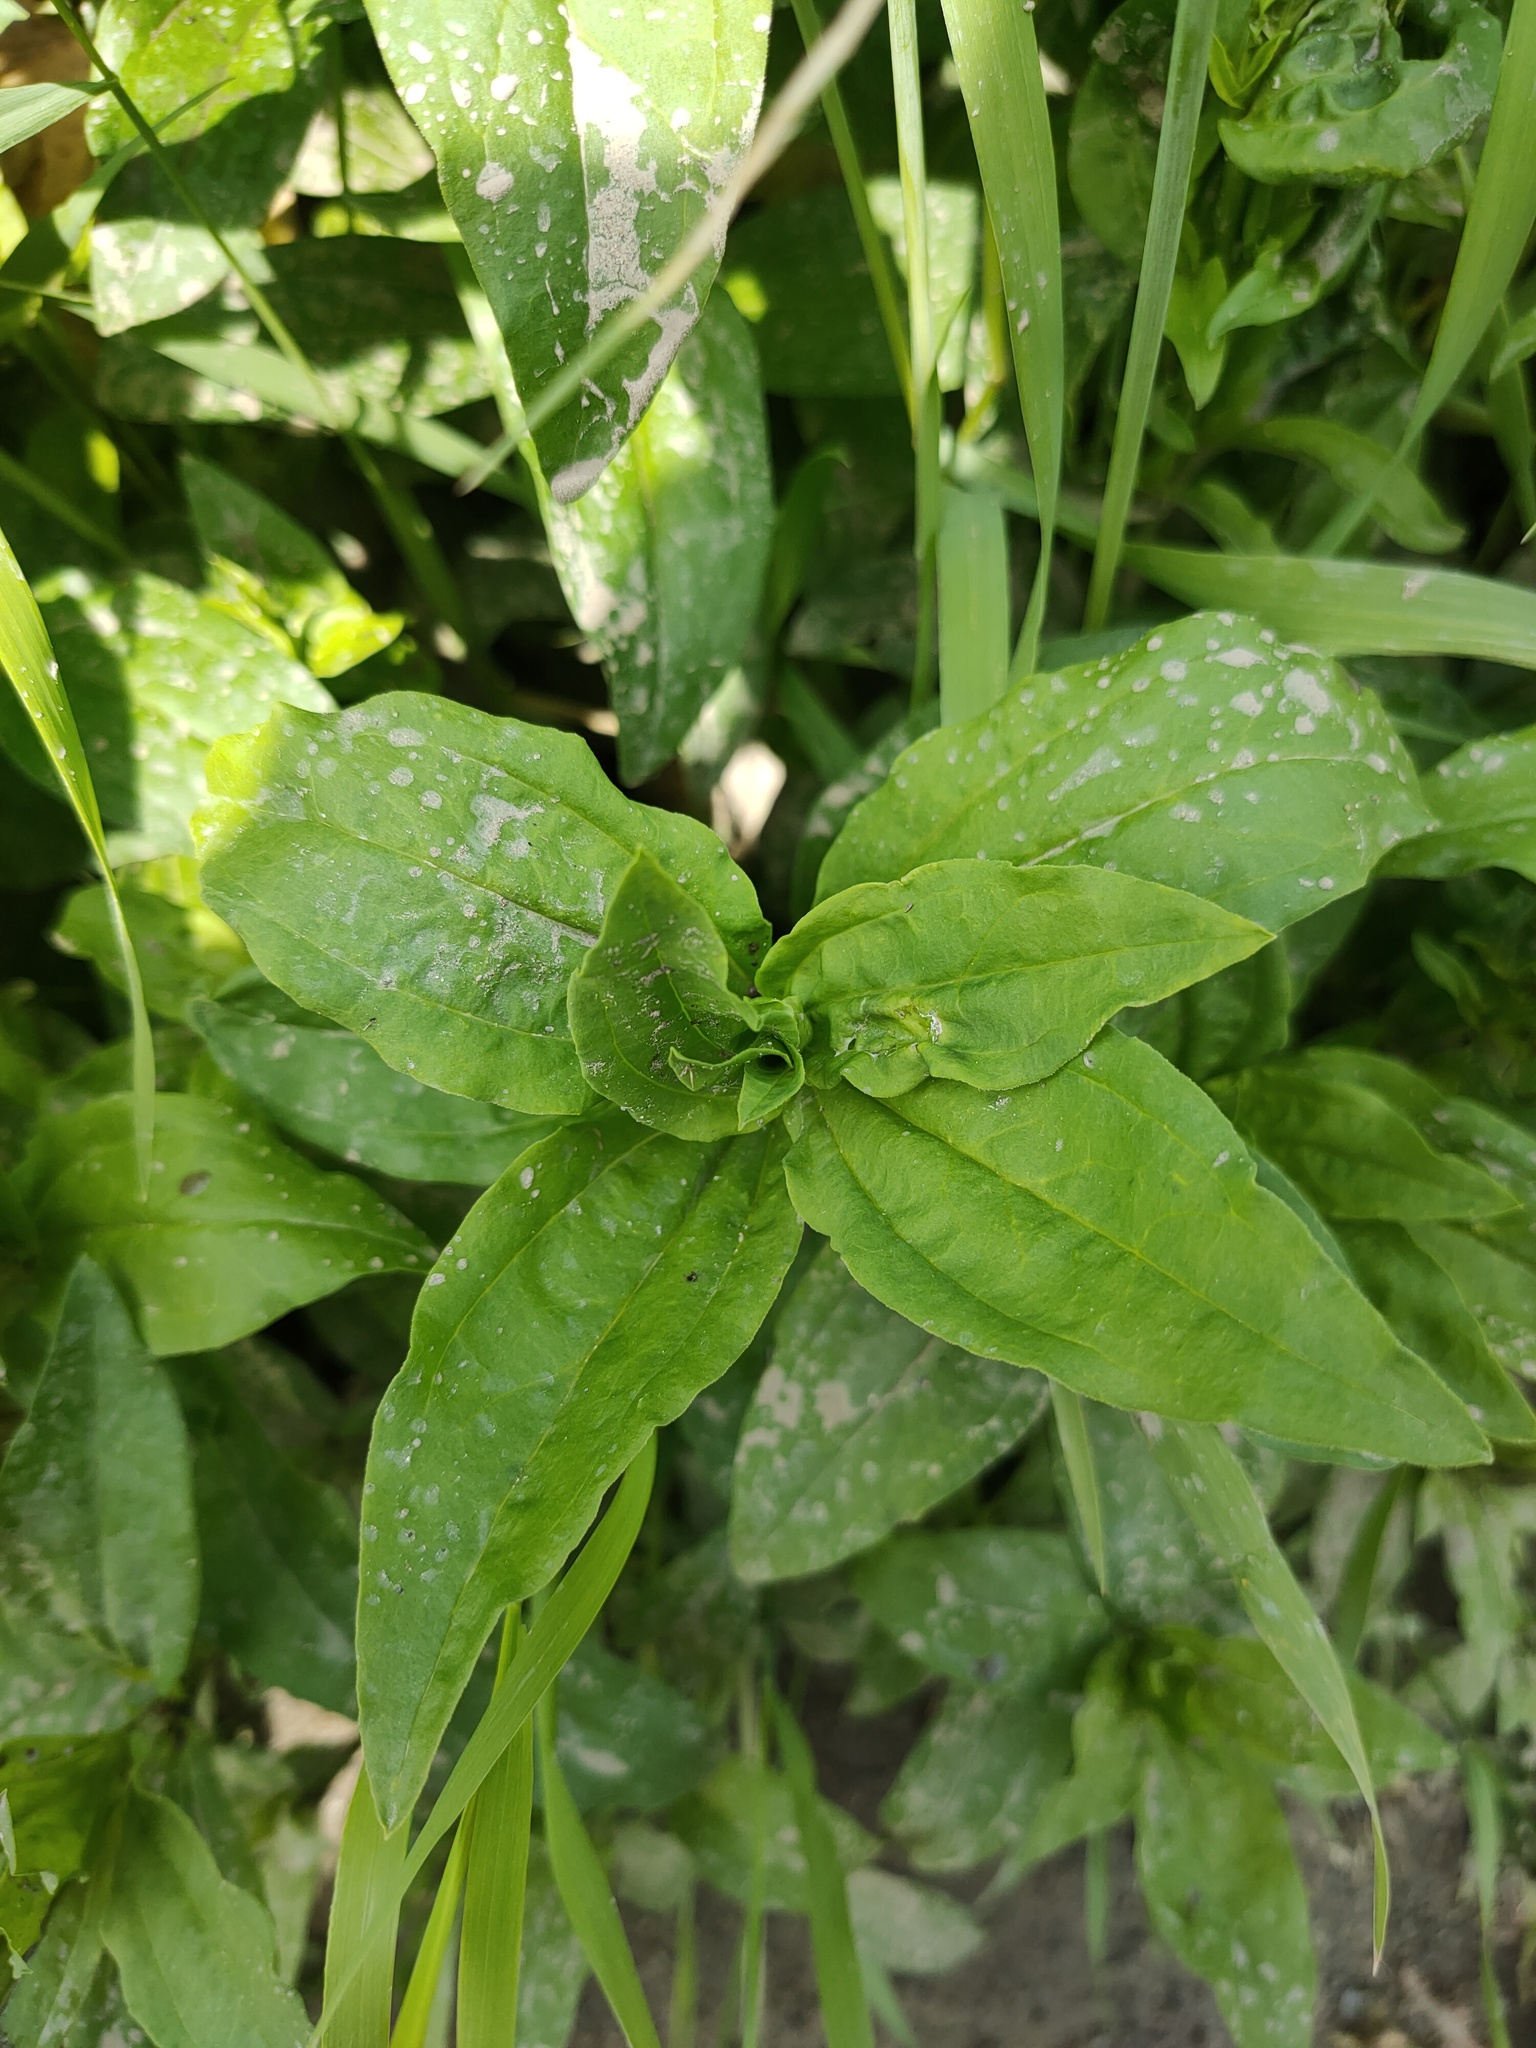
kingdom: Plantae
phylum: Tracheophyta
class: Magnoliopsida
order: Caryophyllales
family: Caryophyllaceae
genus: Saponaria
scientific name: Saponaria officinalis
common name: Soapwort
